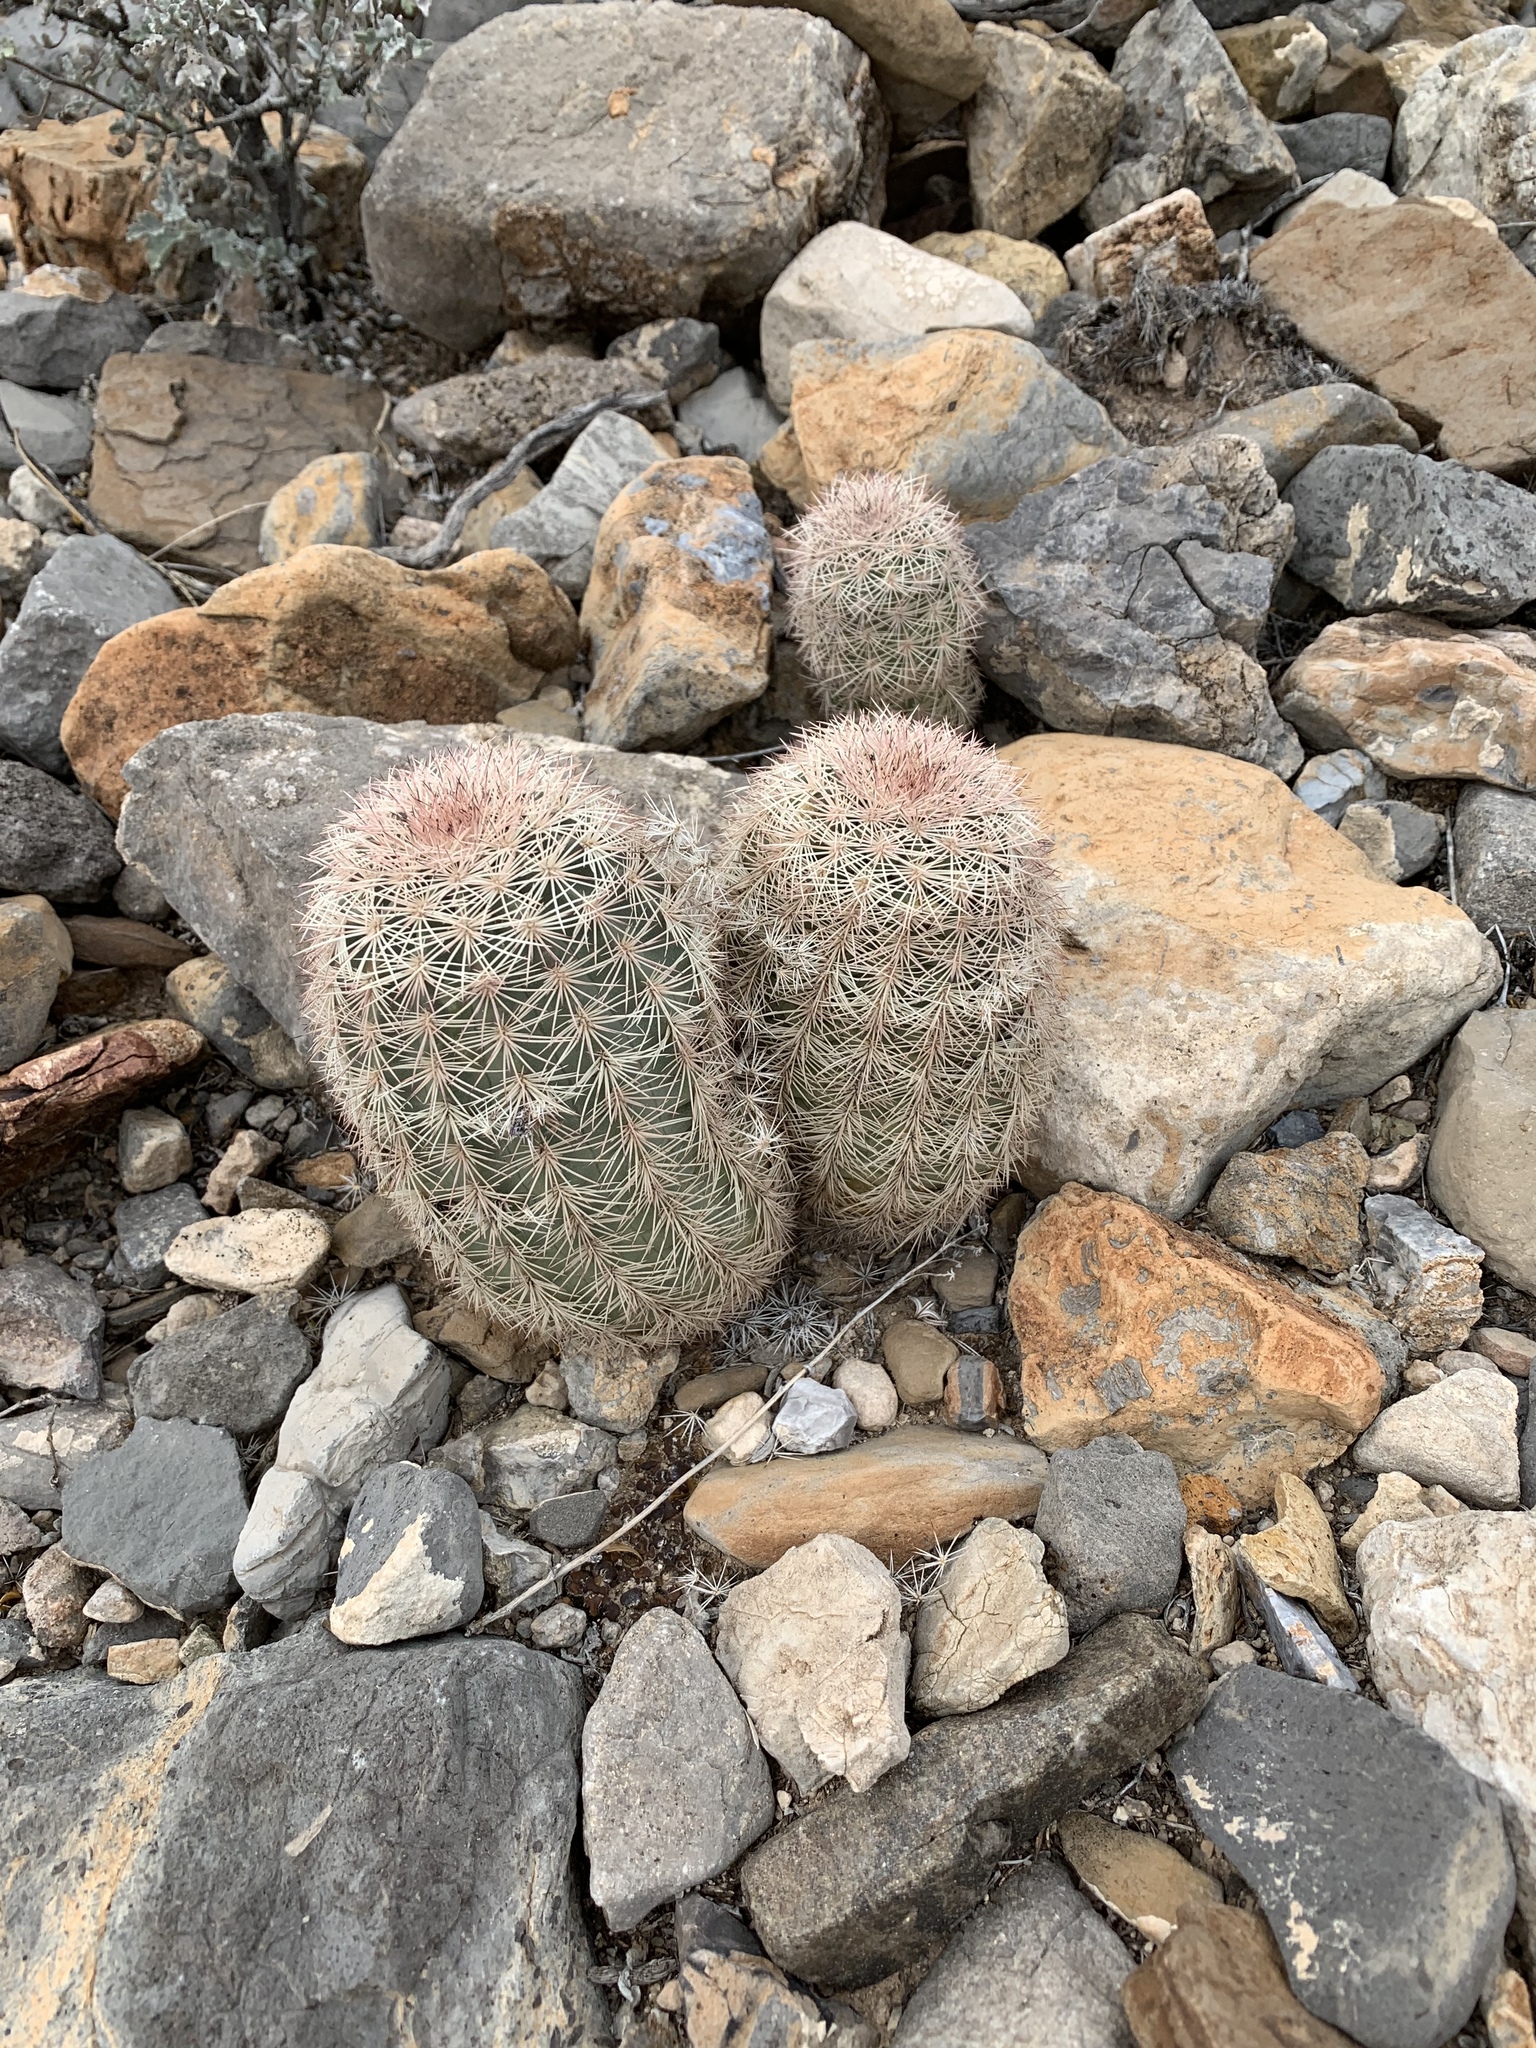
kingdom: Plantae
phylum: Tracheophyta
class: Magnoliopsida
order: Caryophyllales
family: Cactaceae
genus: Echinocereus
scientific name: Echinocereus dasyacanthus
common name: Spiny hedgehog cactus
